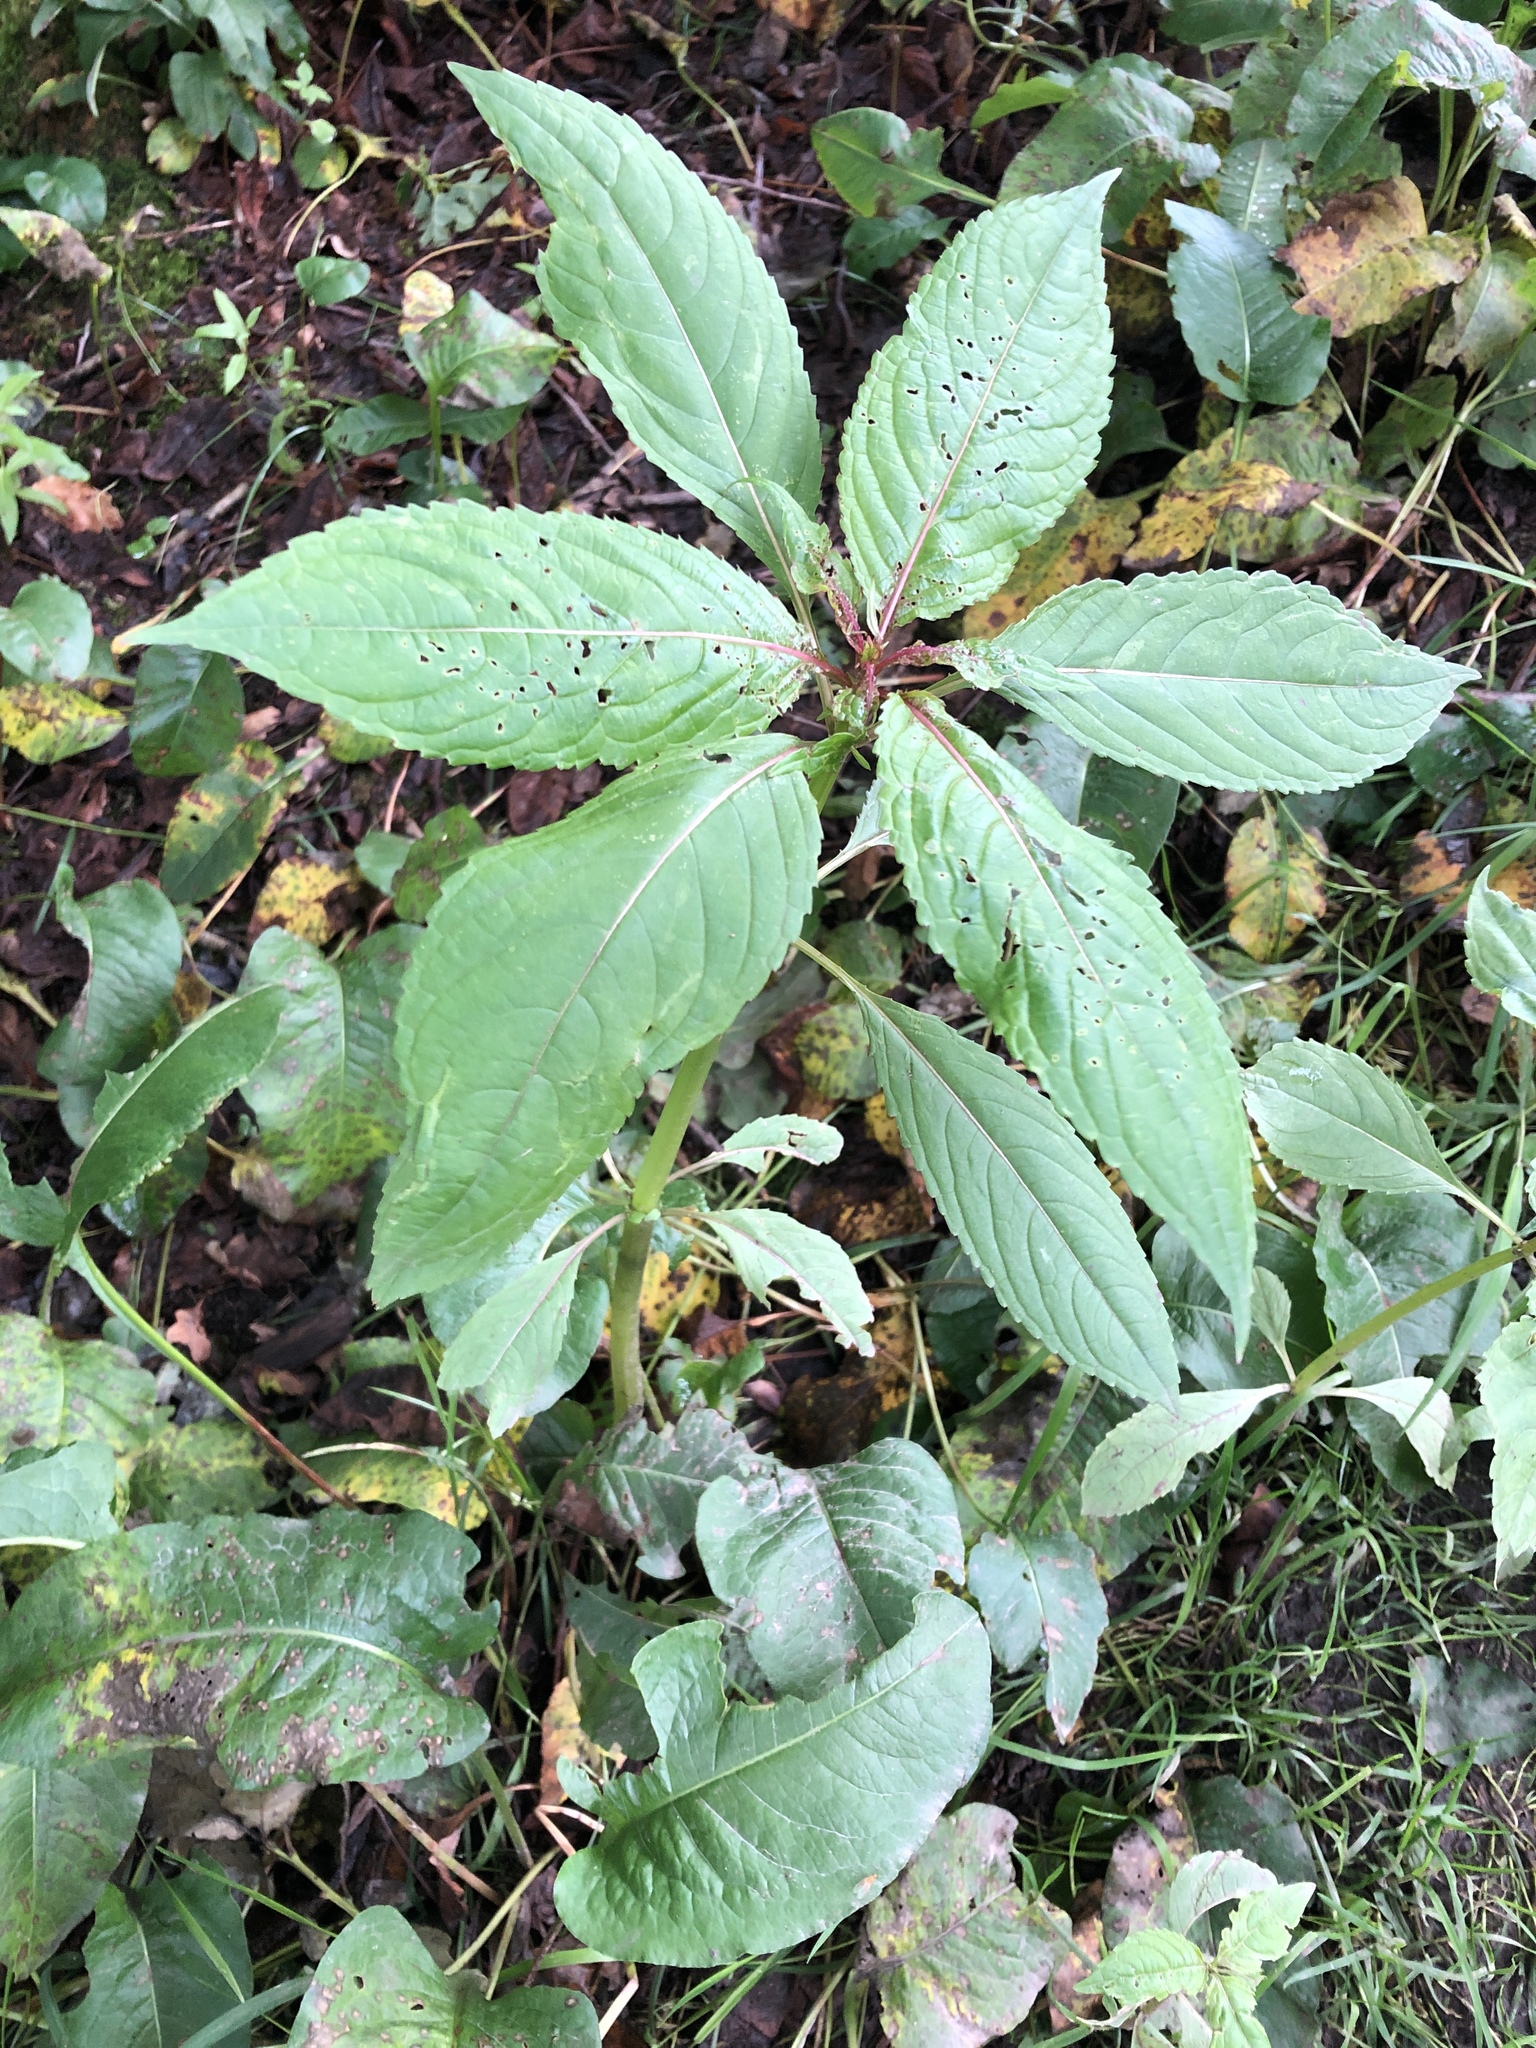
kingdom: Plantae
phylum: Tracheophyta
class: Magnoliopsida
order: Ericales
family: Balsaminaceae
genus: Impatiens
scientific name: Impatiens glandulifera
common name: Himalayan balsam
